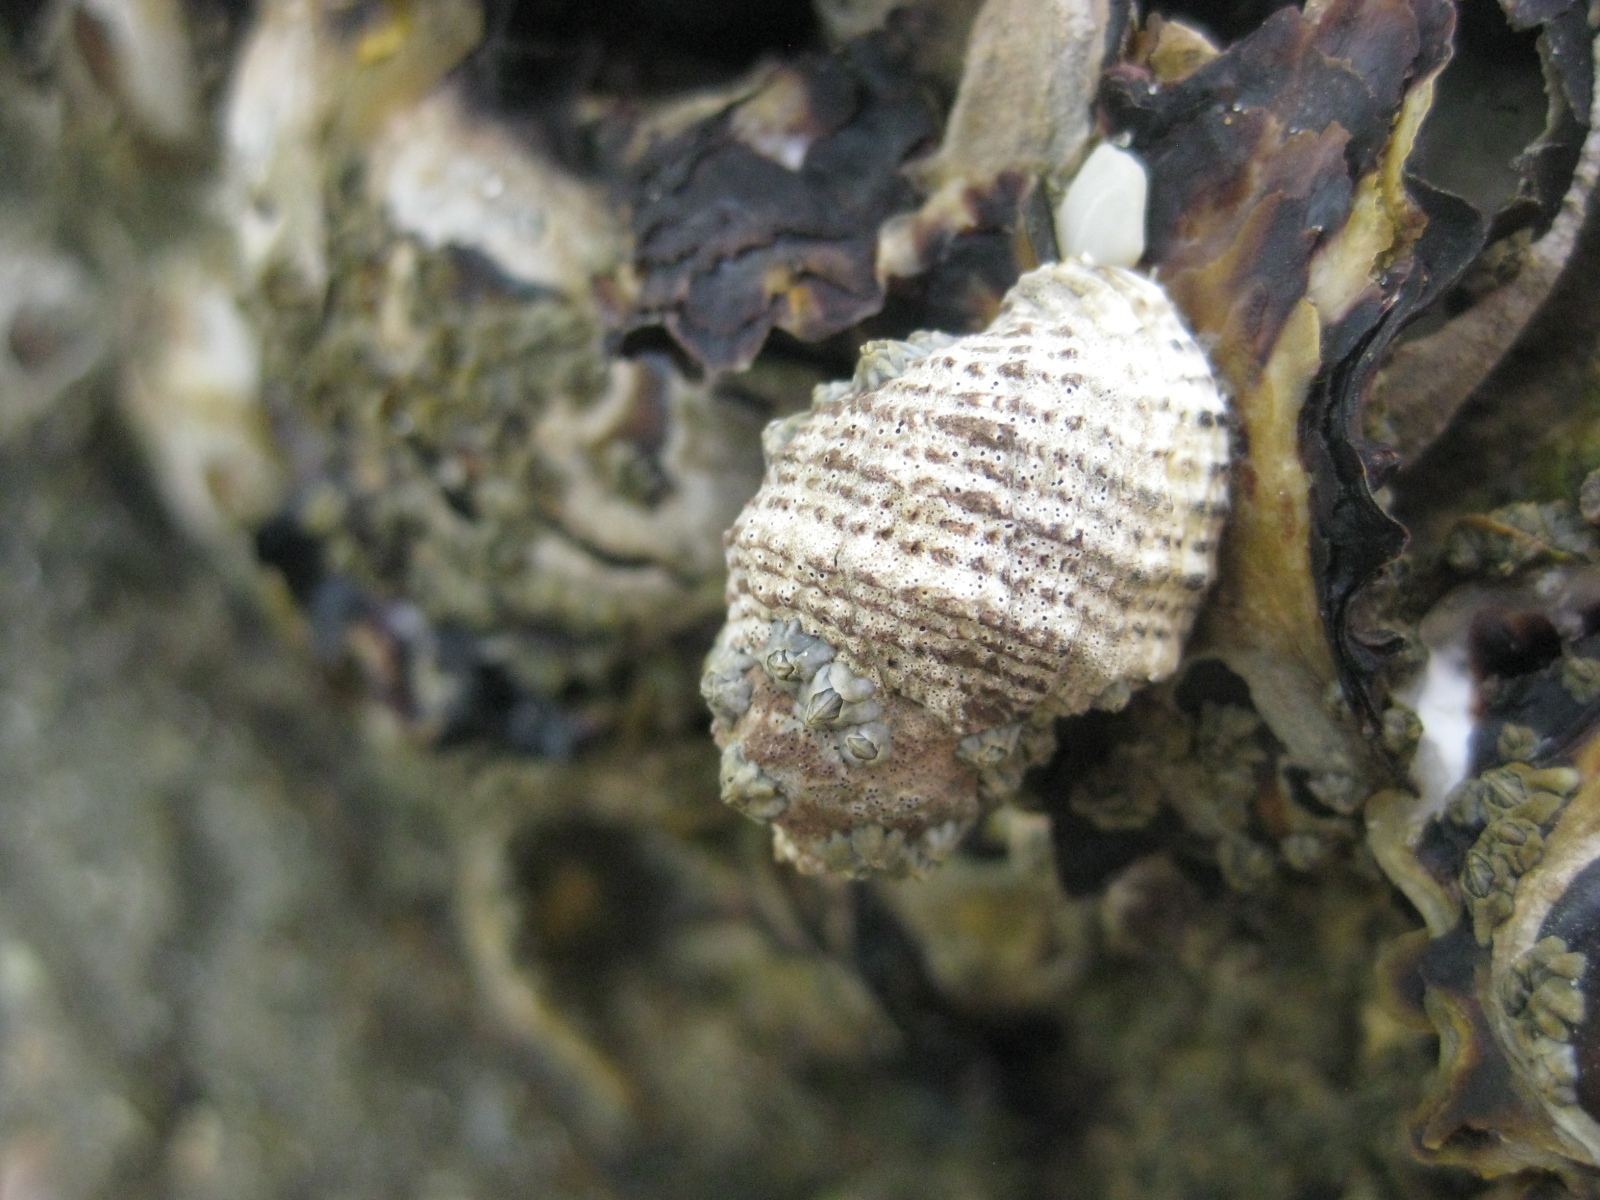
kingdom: Animalia
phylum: Mollusca
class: Gastropoda
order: Neogastropoda
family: Muricidae
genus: Haustrum
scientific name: Haustrum scobina
